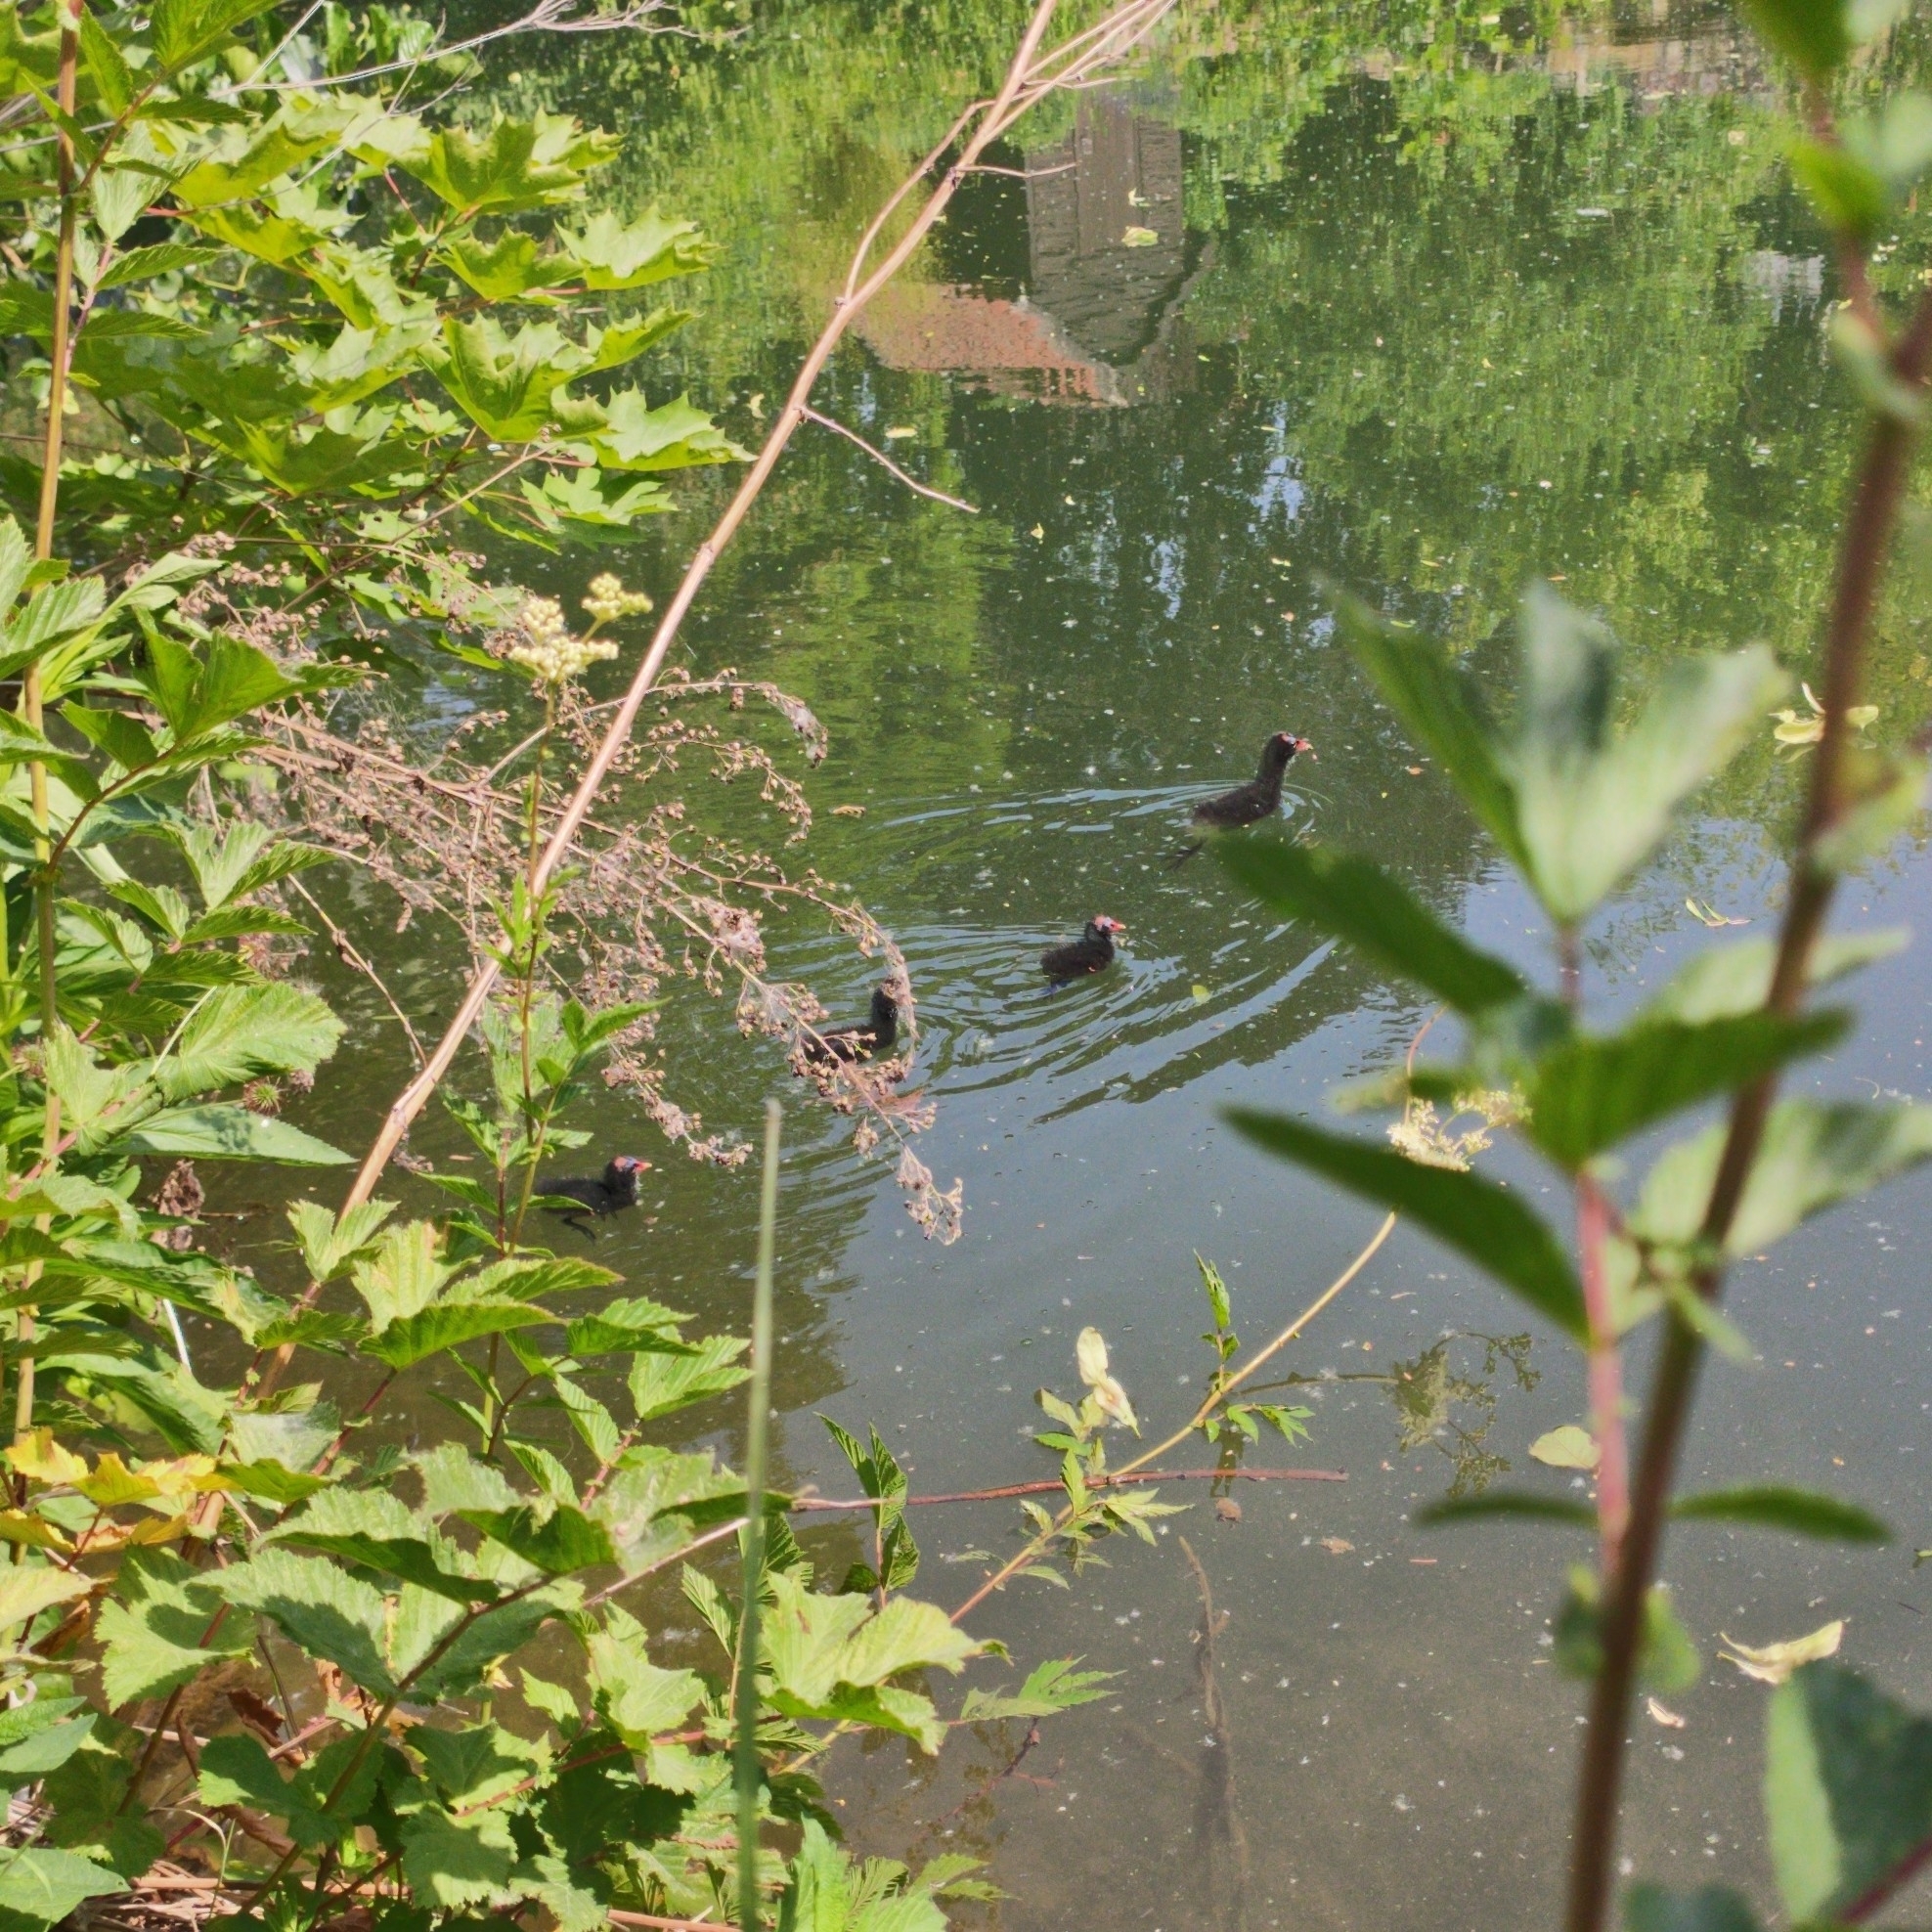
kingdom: Animalia
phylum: Chordata
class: Aves
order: Gruiformes
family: Rallidae
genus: Gallinula
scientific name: Gallinula chloropus
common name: Common moorhen
